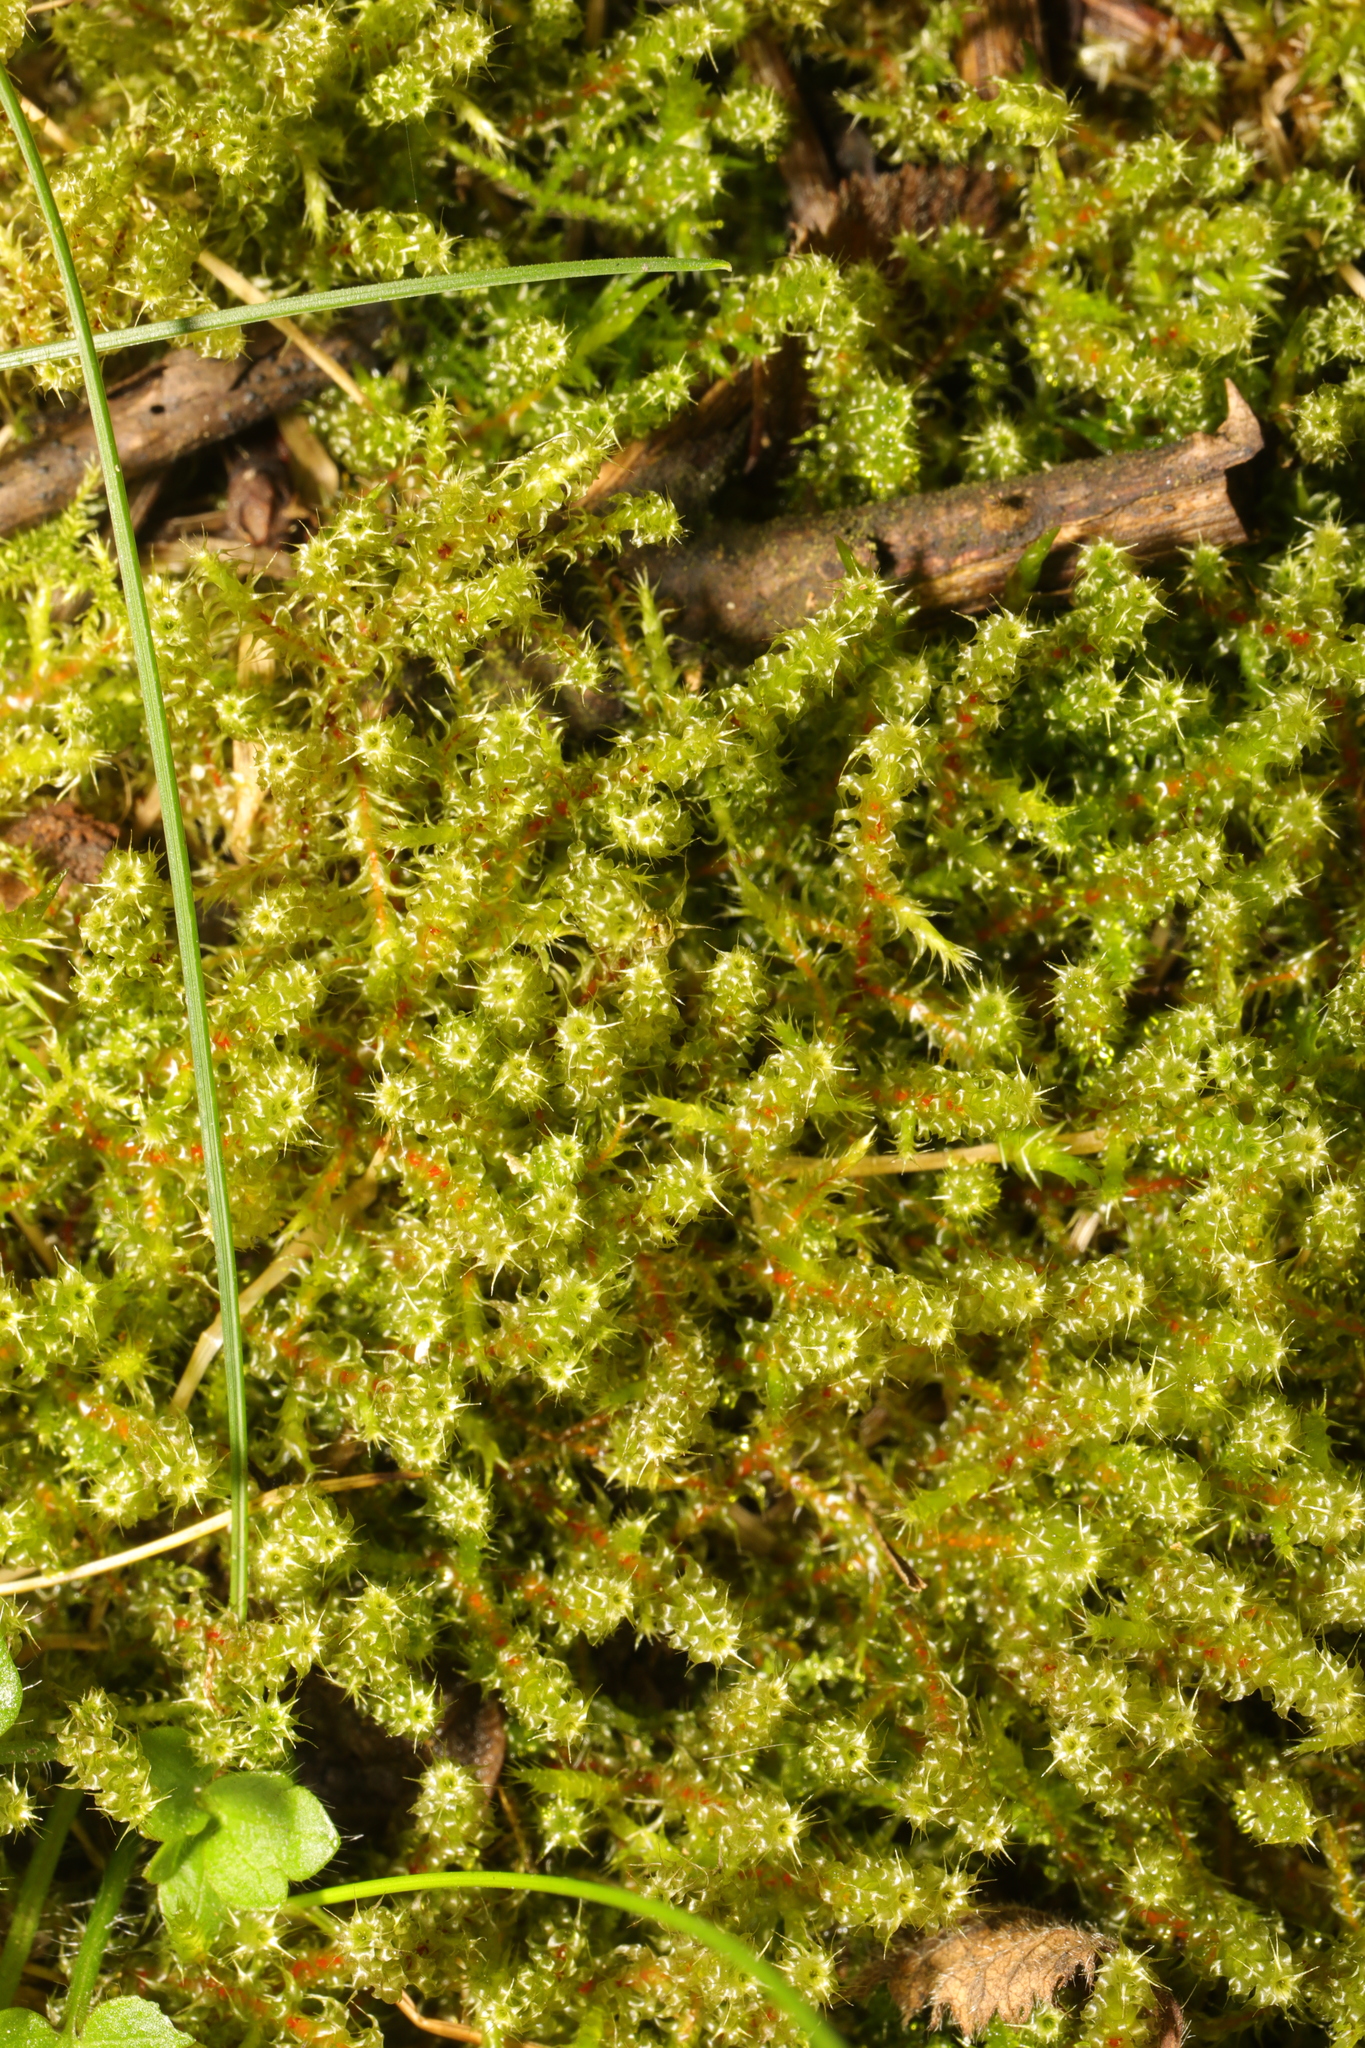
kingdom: Plantae
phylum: Bryophyta
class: Bryopsida
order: Hypnales
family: Hylocomiaceae
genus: Rhytidiadelphus
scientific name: Rhytidiadelphus squarrosus
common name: Springy turf-moss
